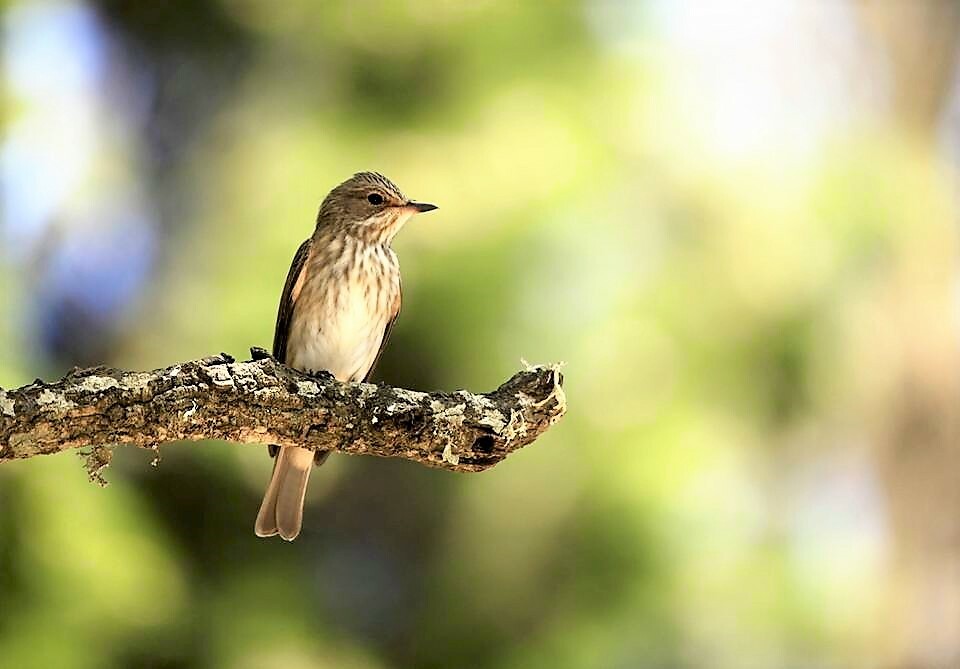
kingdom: Animalia
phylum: Chordata
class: Aves
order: Passeriformes
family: Muscicapidae
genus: Muscicapa
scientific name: Muscicapa striata
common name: Spotted flycatcher
